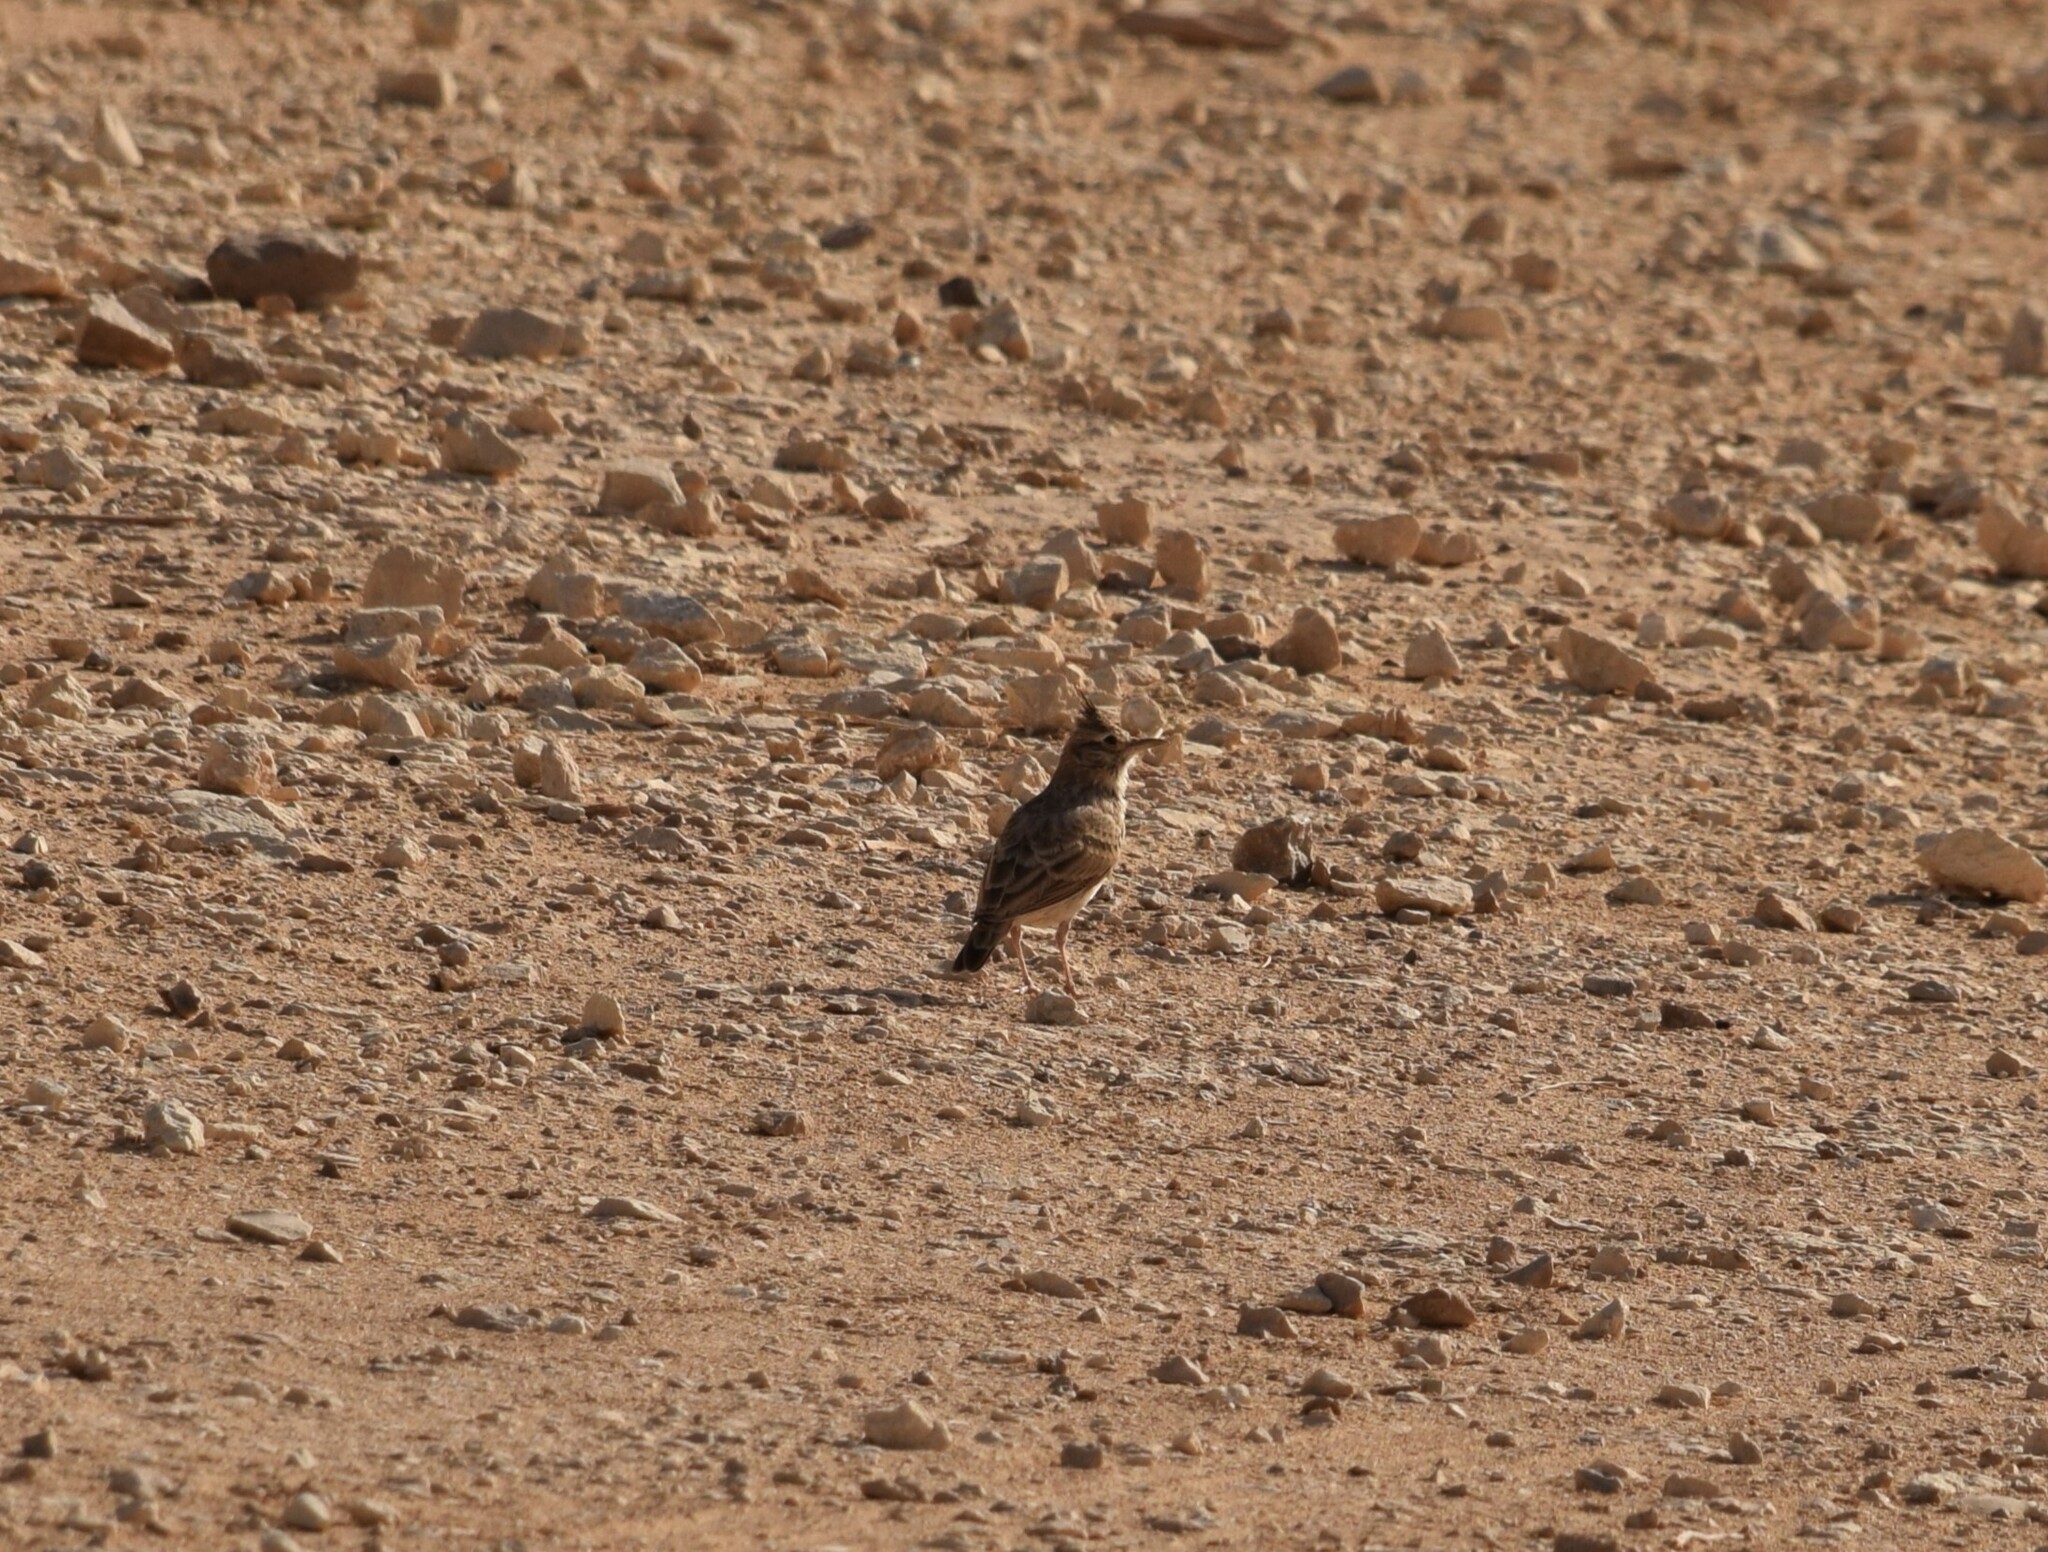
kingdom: Animalia
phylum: Chordata
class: Aves
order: Passeriformes
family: Alaudidae
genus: Galerida
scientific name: Galerida cristata
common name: Crested lark
